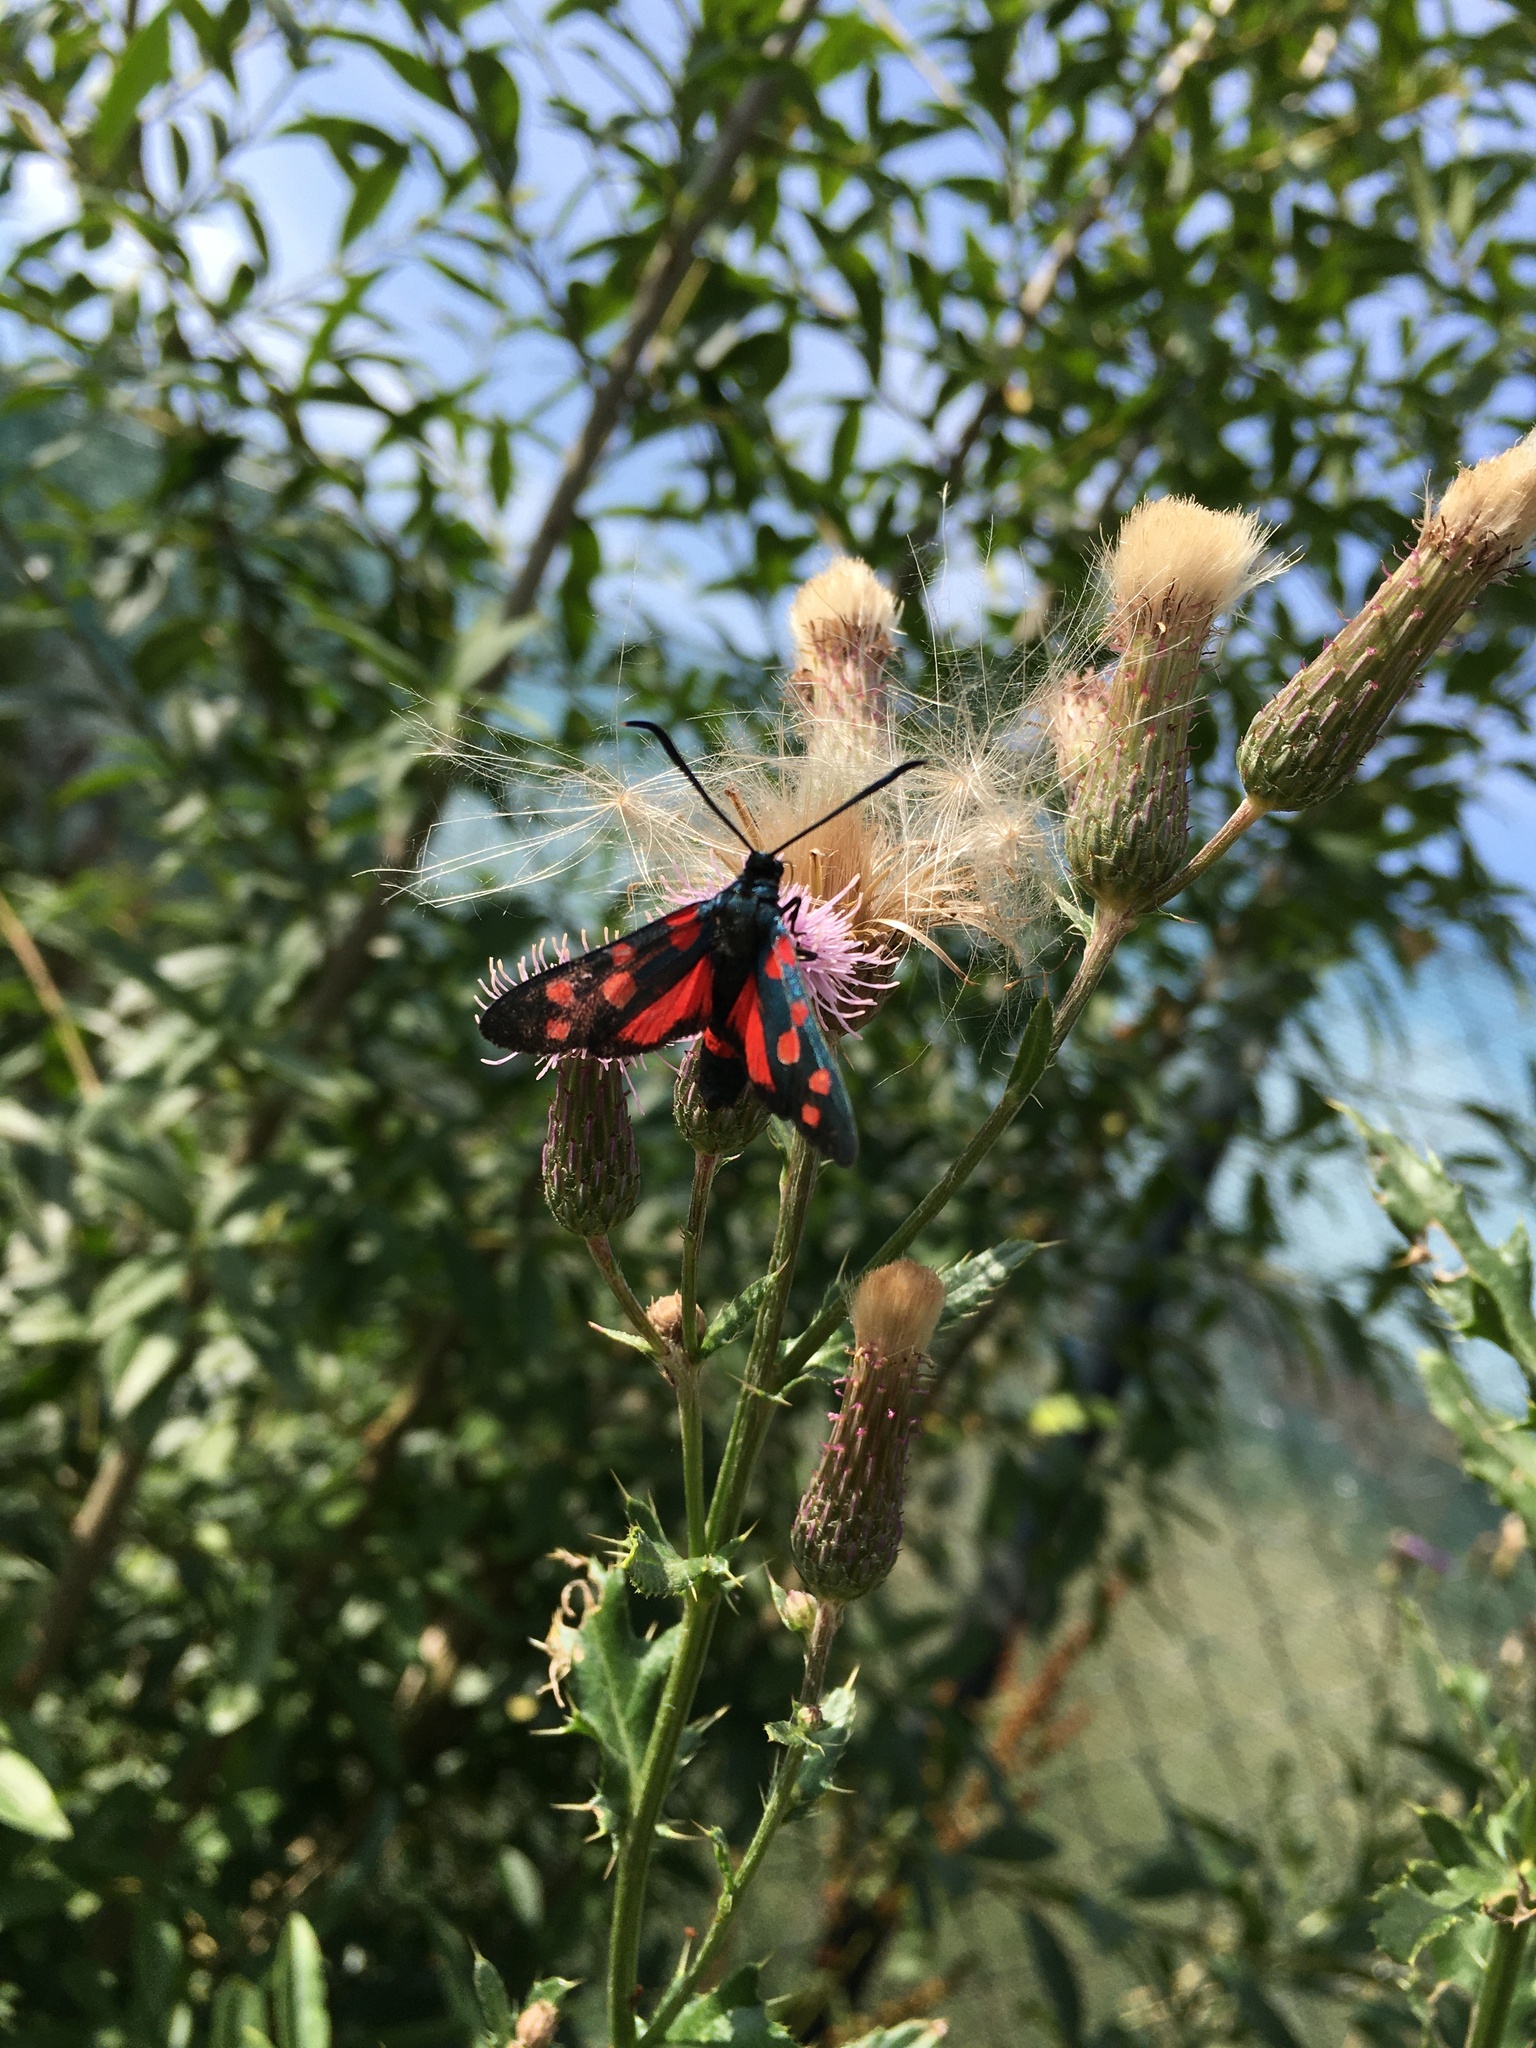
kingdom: Animalia
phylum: Arthropoda
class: Insecta
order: Lepidoptera
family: Zygaenidae
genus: Zygaena
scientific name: Zygaena ephialtes
